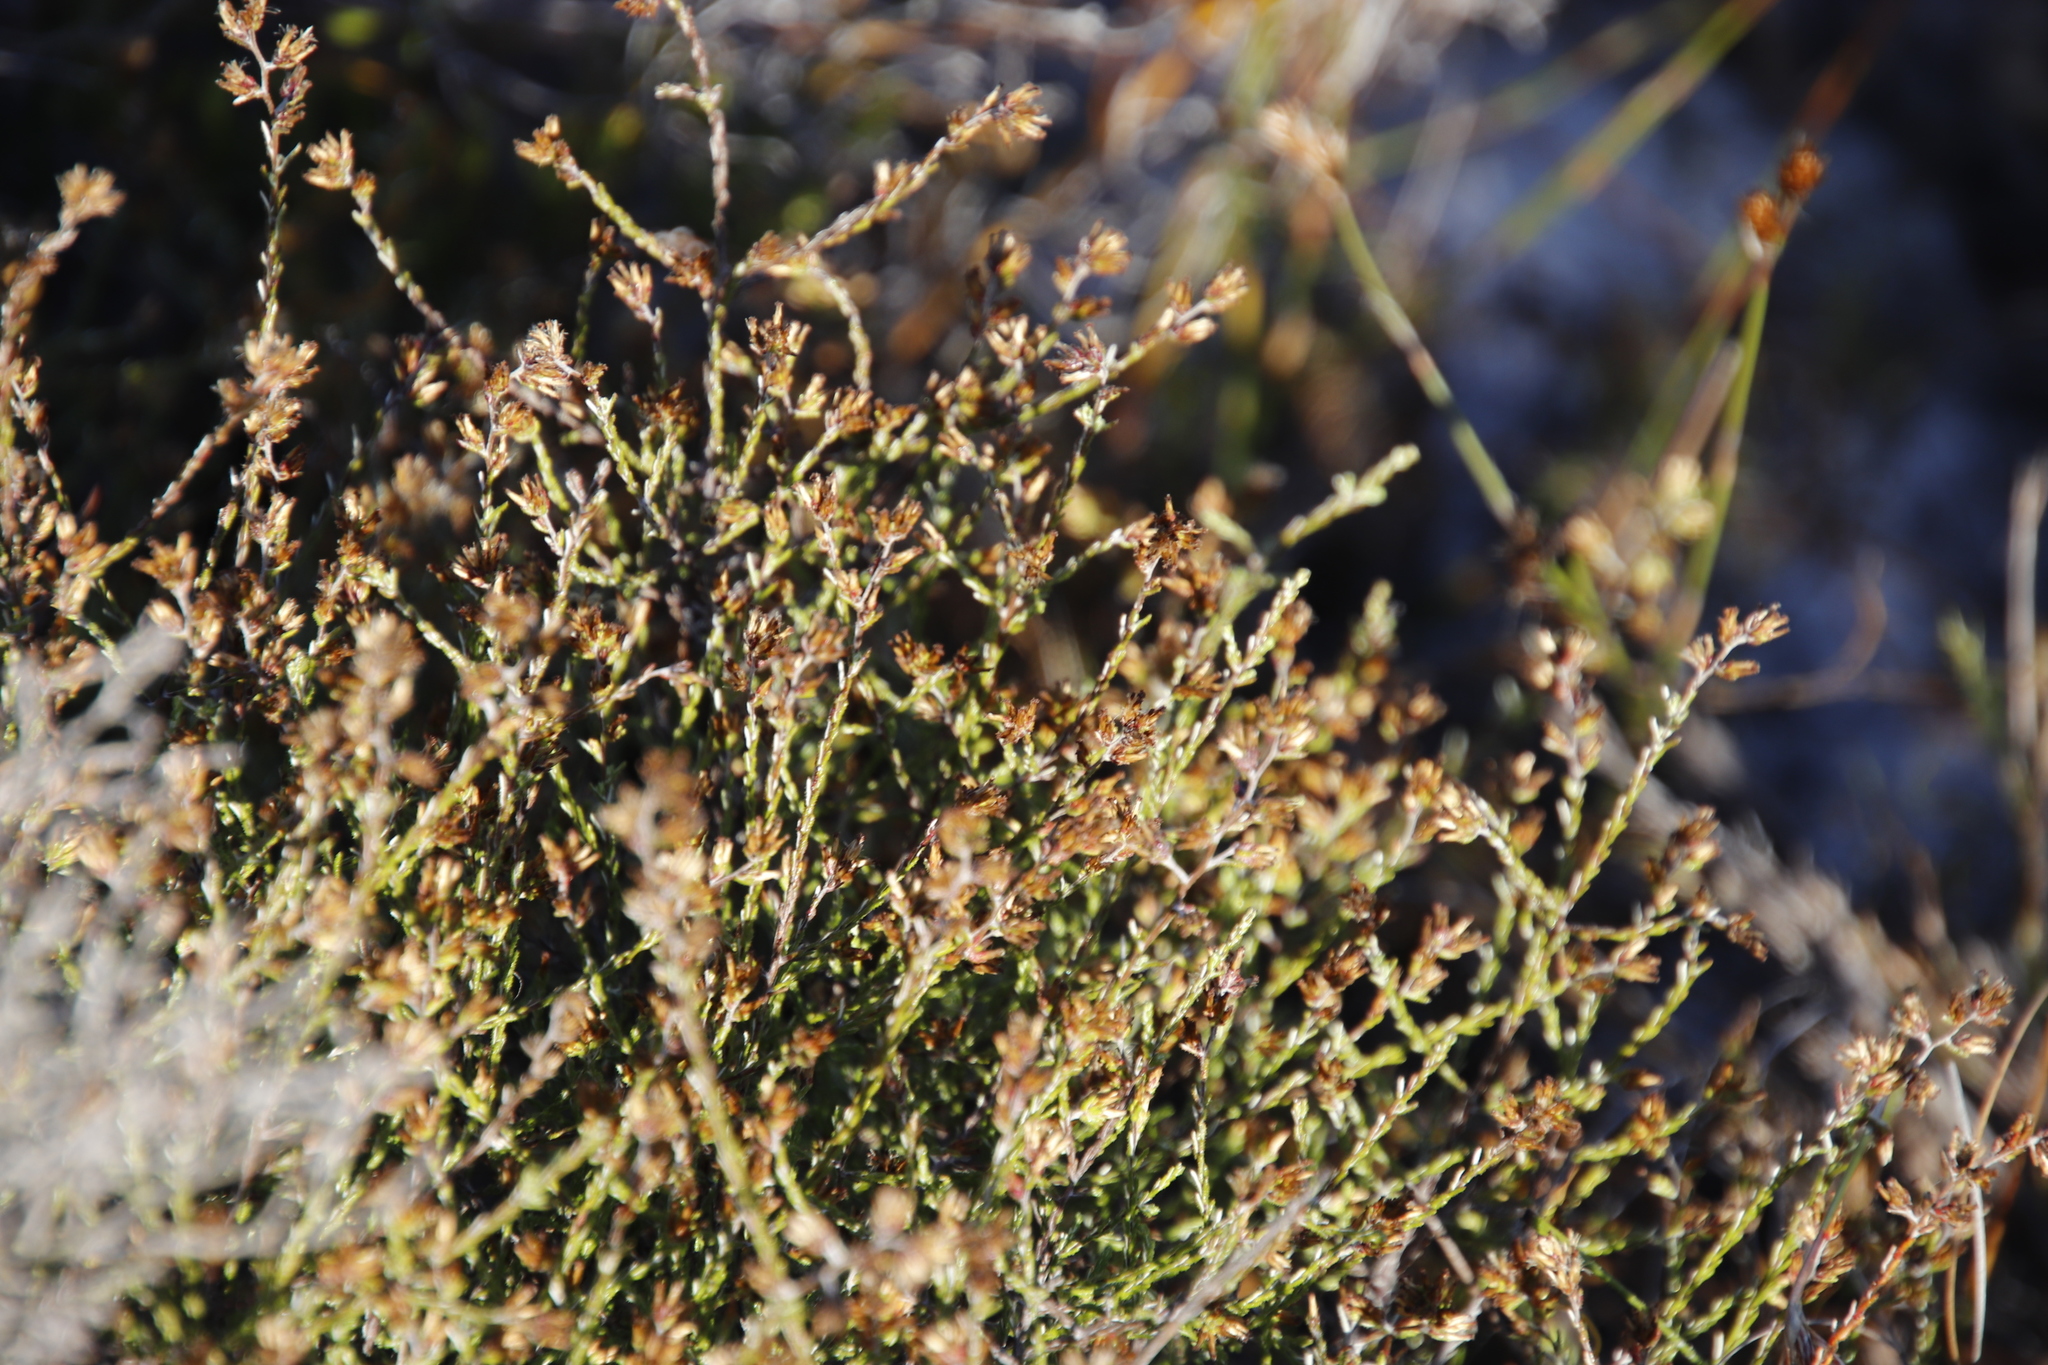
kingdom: Plantae
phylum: Tracheophyta
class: Magnoliopsida
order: Asterales
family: Asteraceae
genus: Myrovernix
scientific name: Myrovernix scaber
